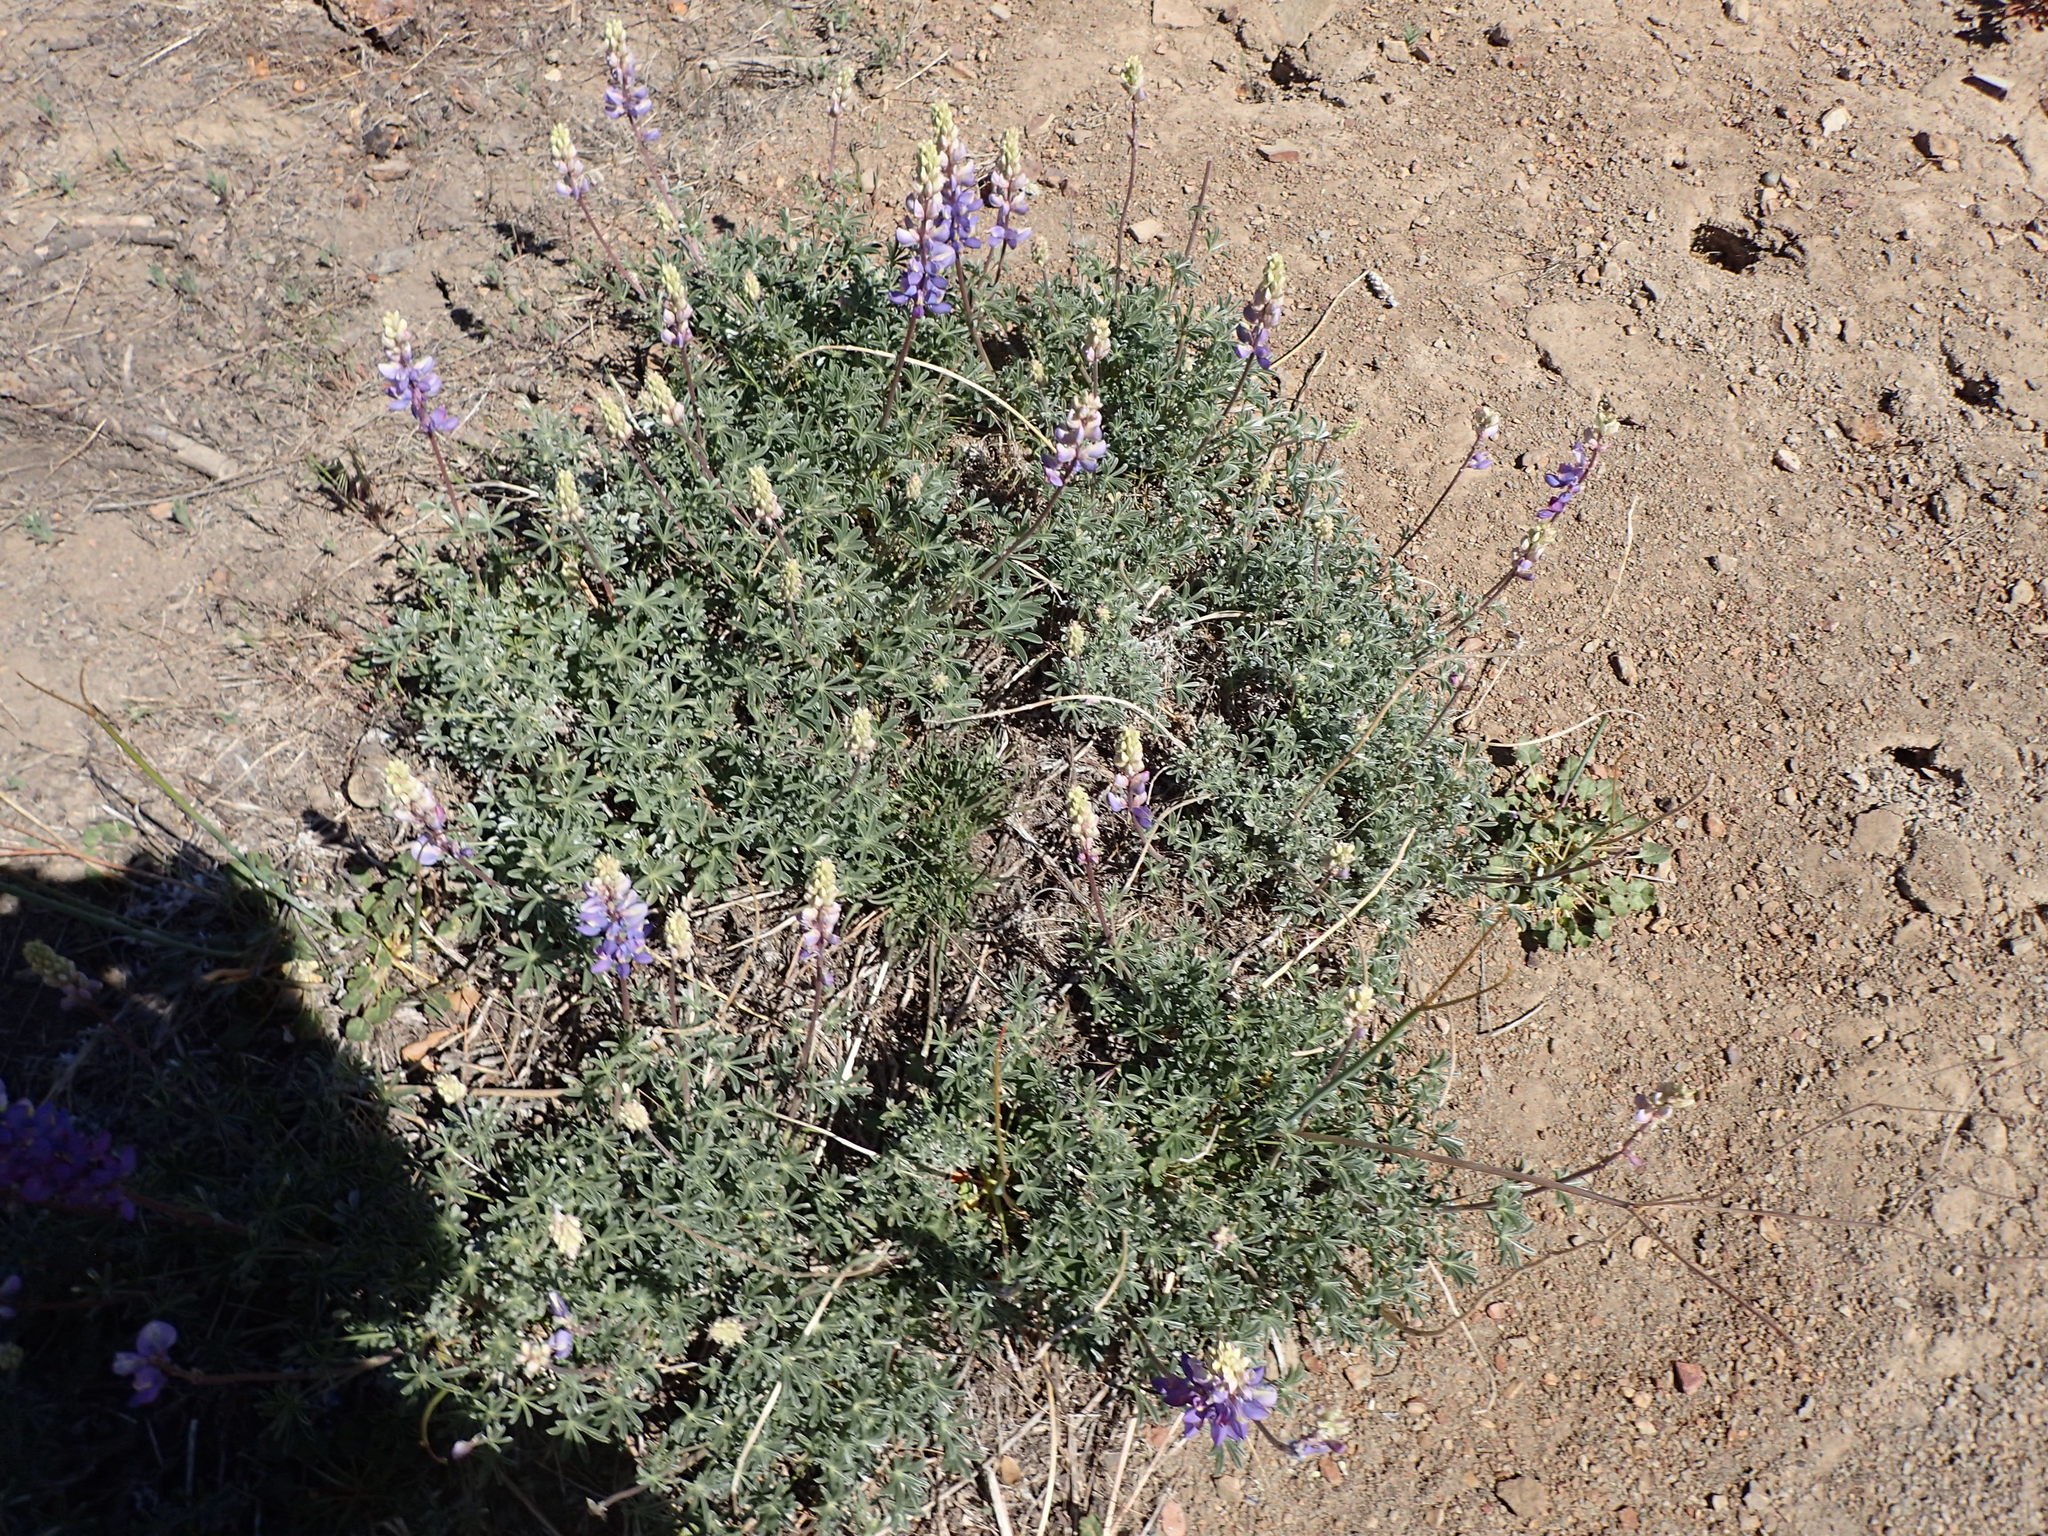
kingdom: Plantae
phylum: Tracheophyta
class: Magnoliopsida
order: Fabales
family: Fabaceae
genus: Lupinus
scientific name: Lupinus excubitus
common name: Grape soda lupine
